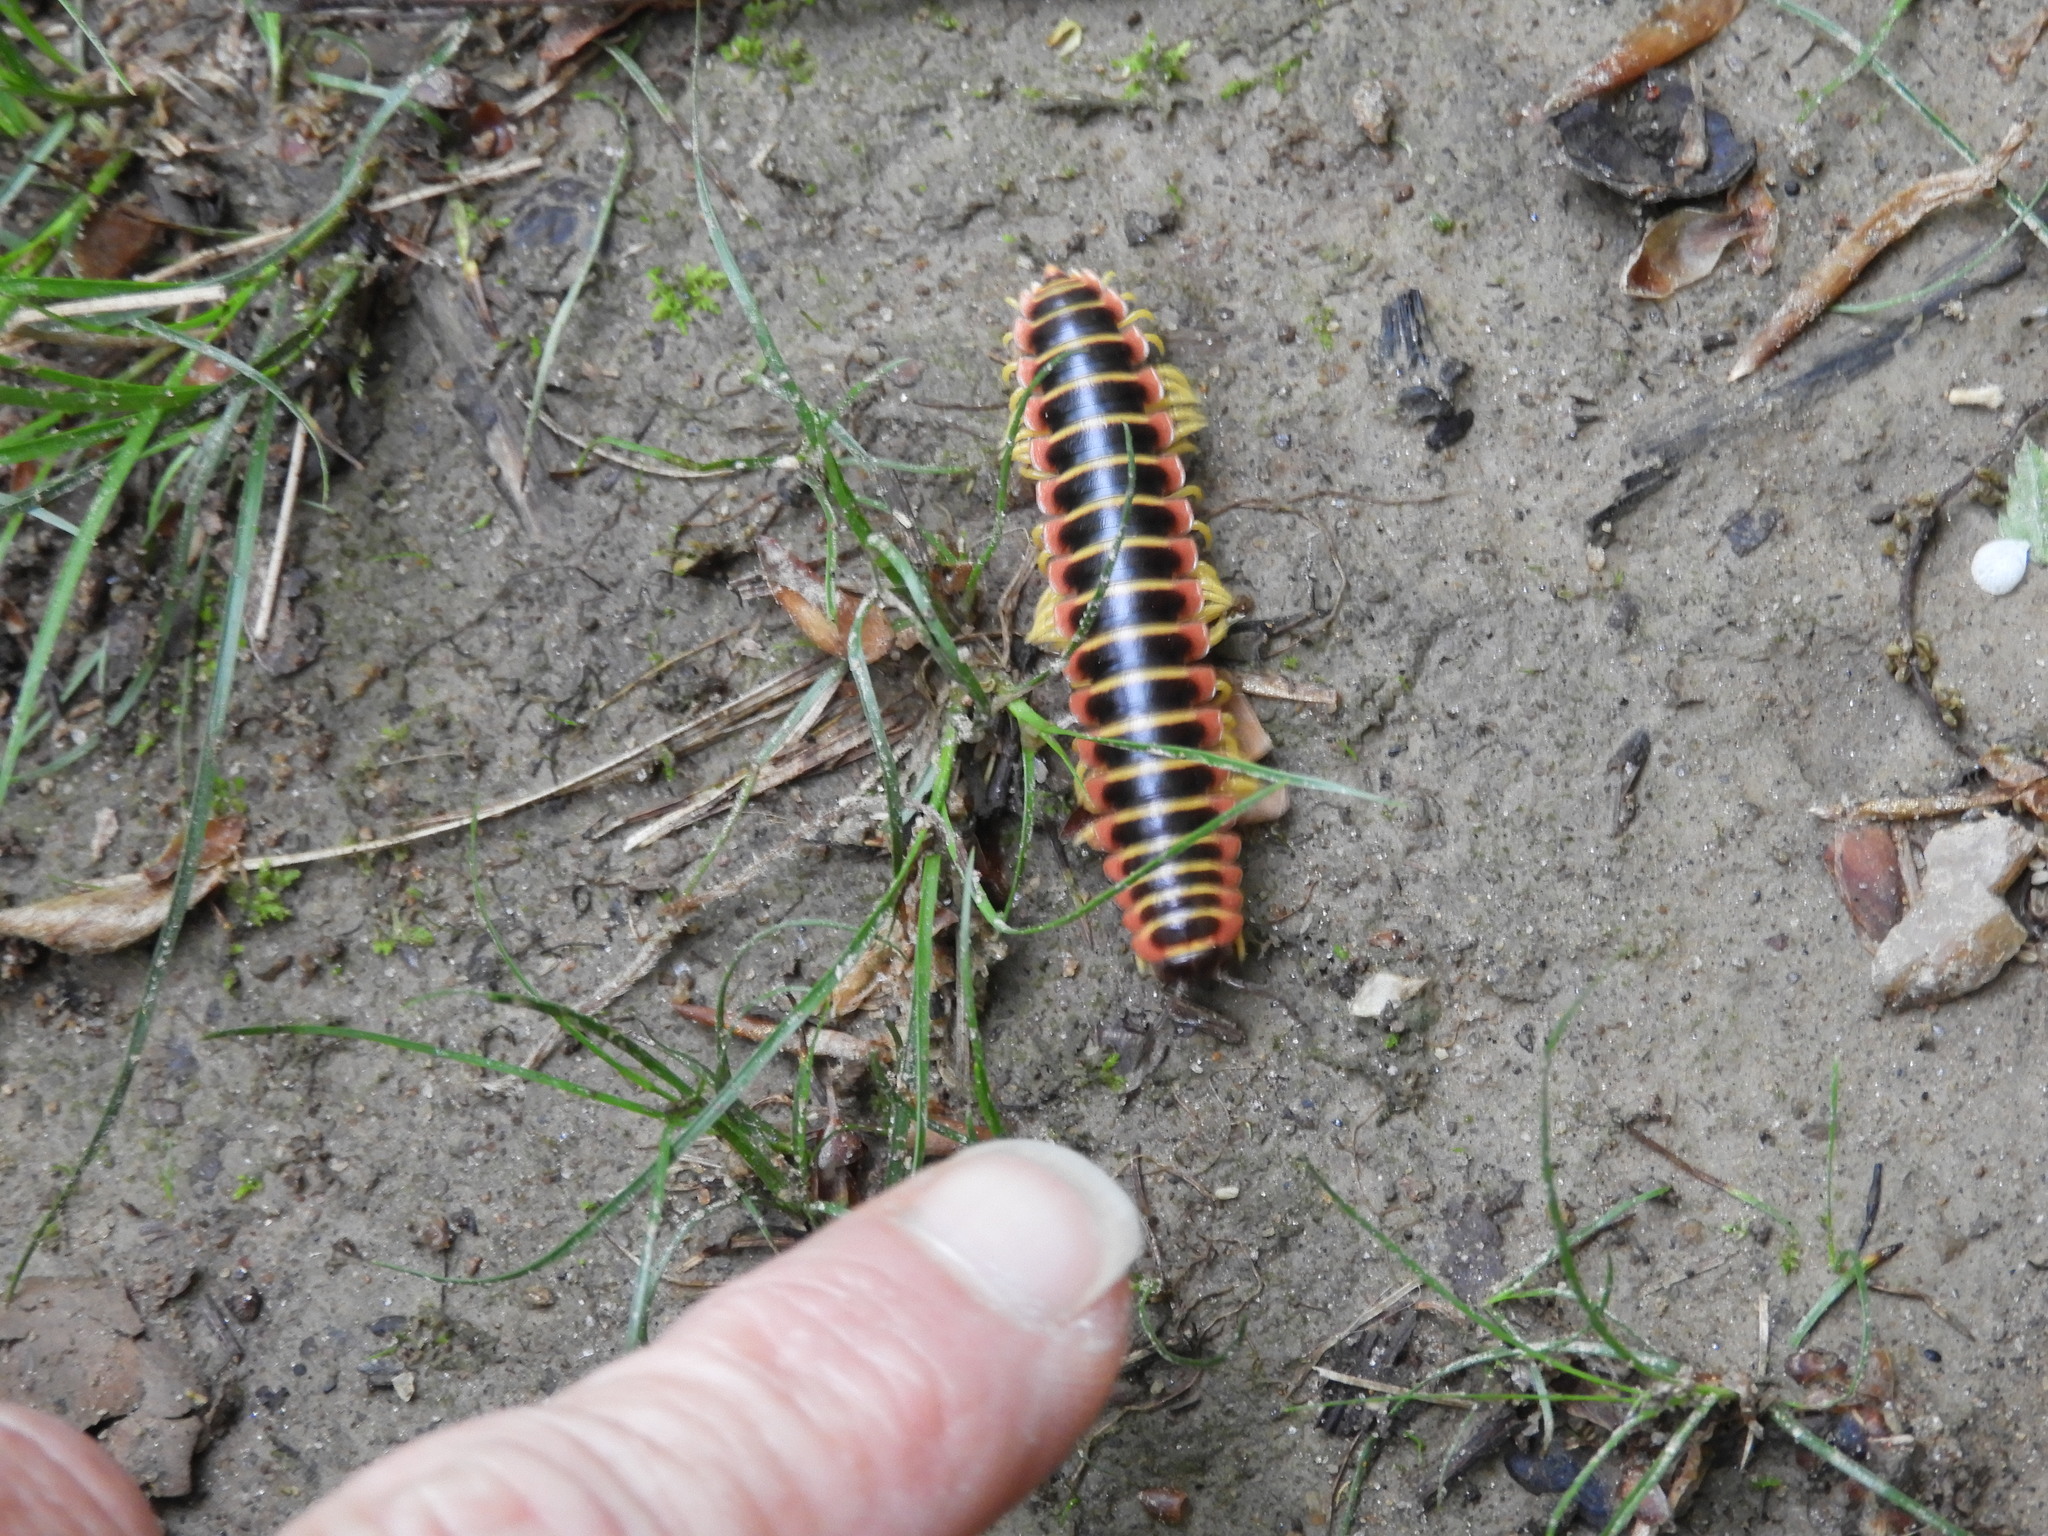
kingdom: Animalia
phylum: Arthropoda
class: Diplopoda
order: Polydesmida
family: Xystodesmidae
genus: Apheloria
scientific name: Apheloria virginiensis
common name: Black-and-gold flat millipede
